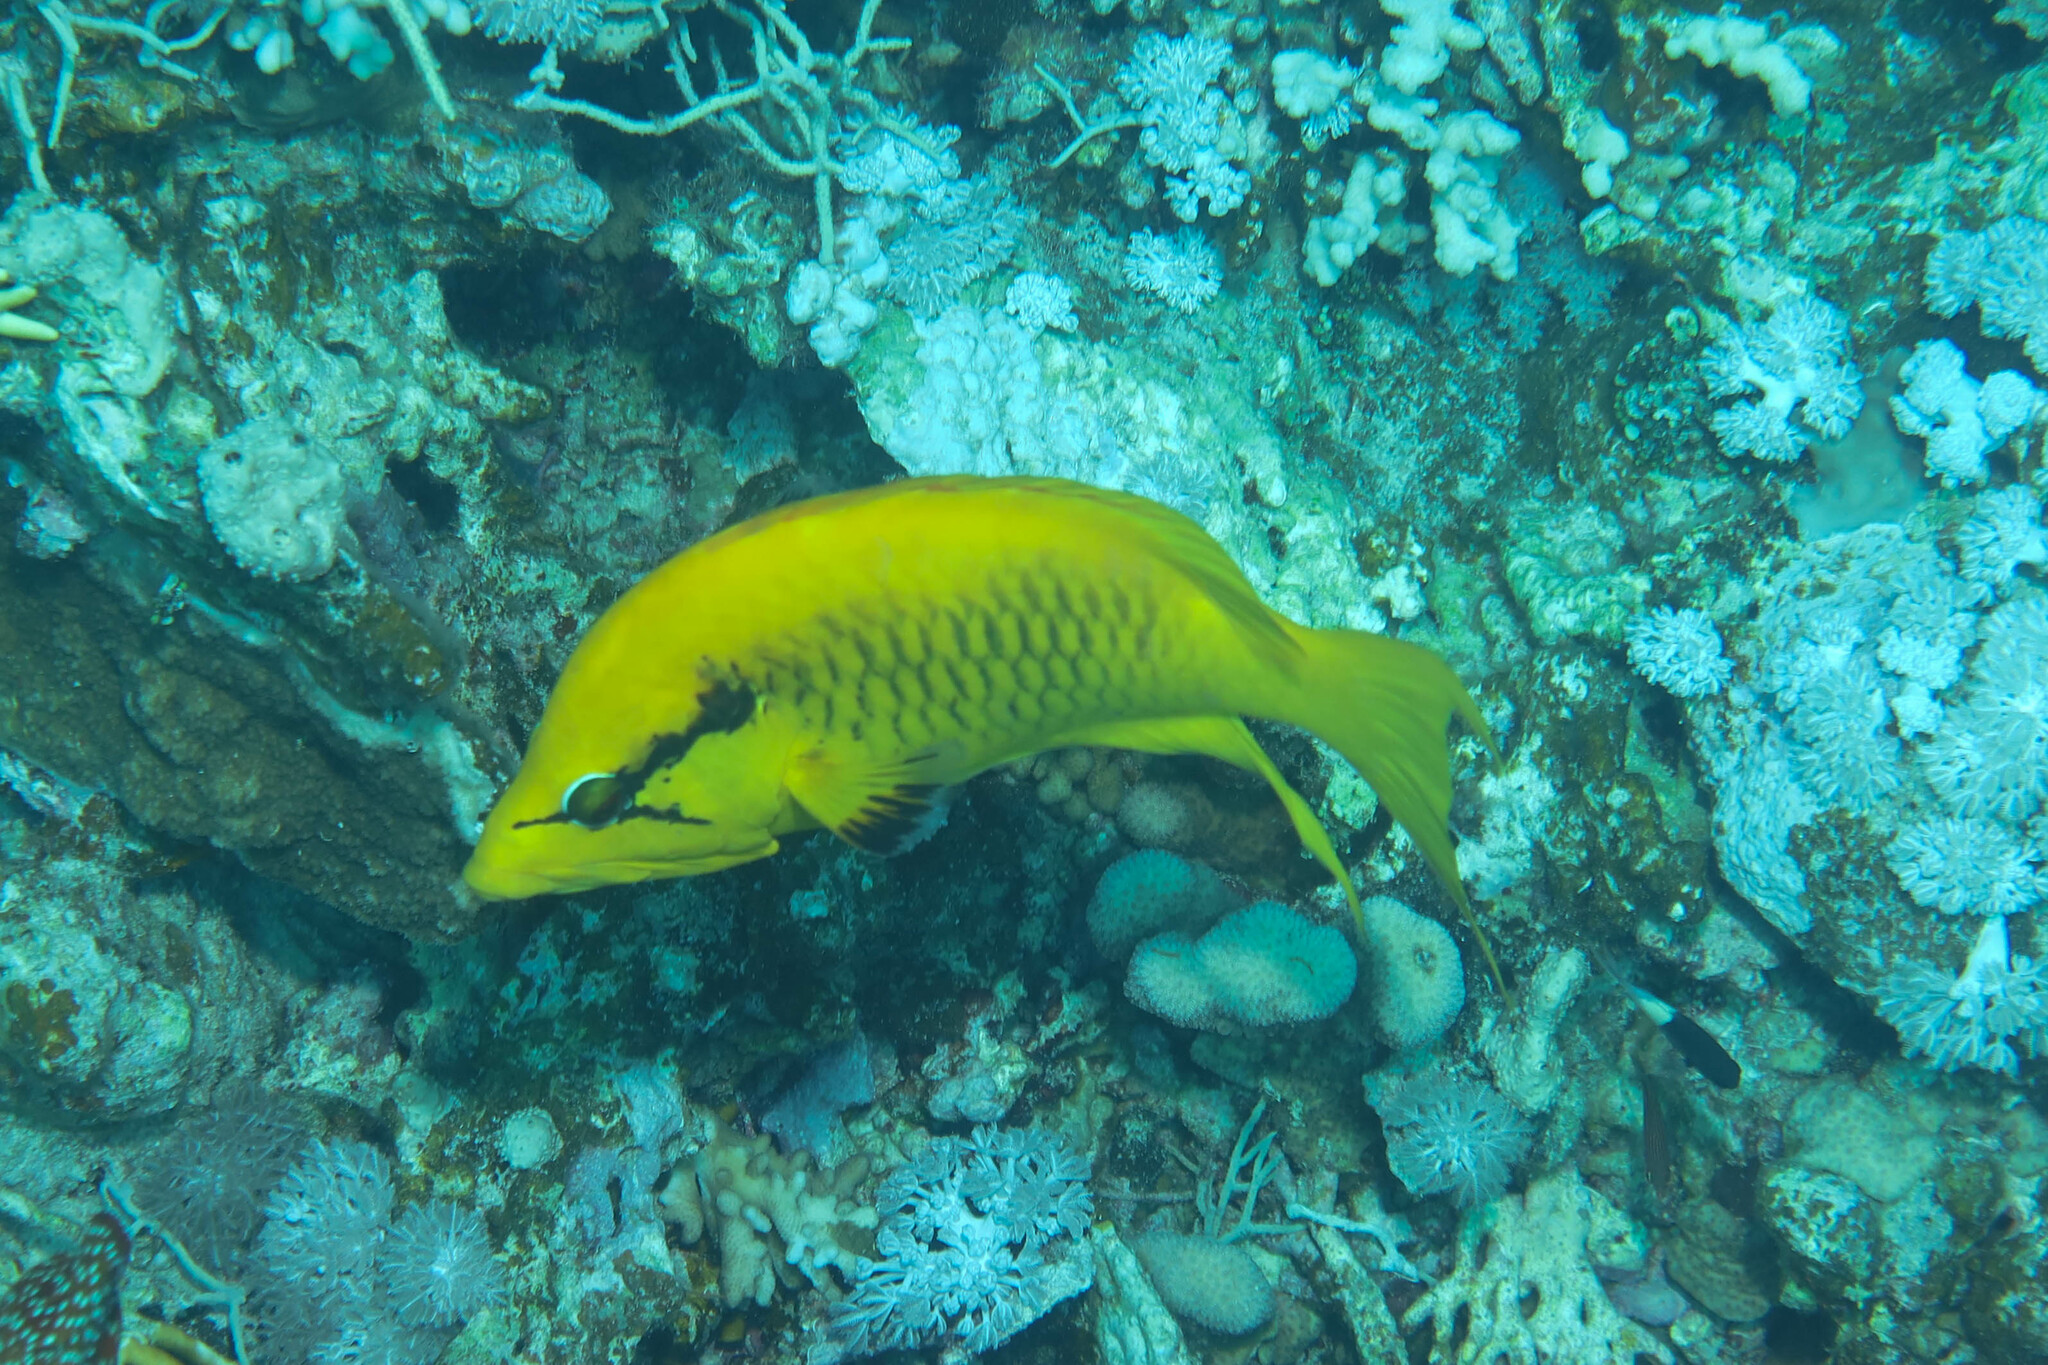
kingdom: Animalia
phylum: Chordata
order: Perciformes
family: Labridae
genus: Epibulus
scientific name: Epibulus insidiator
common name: Slingjaw wrasse
